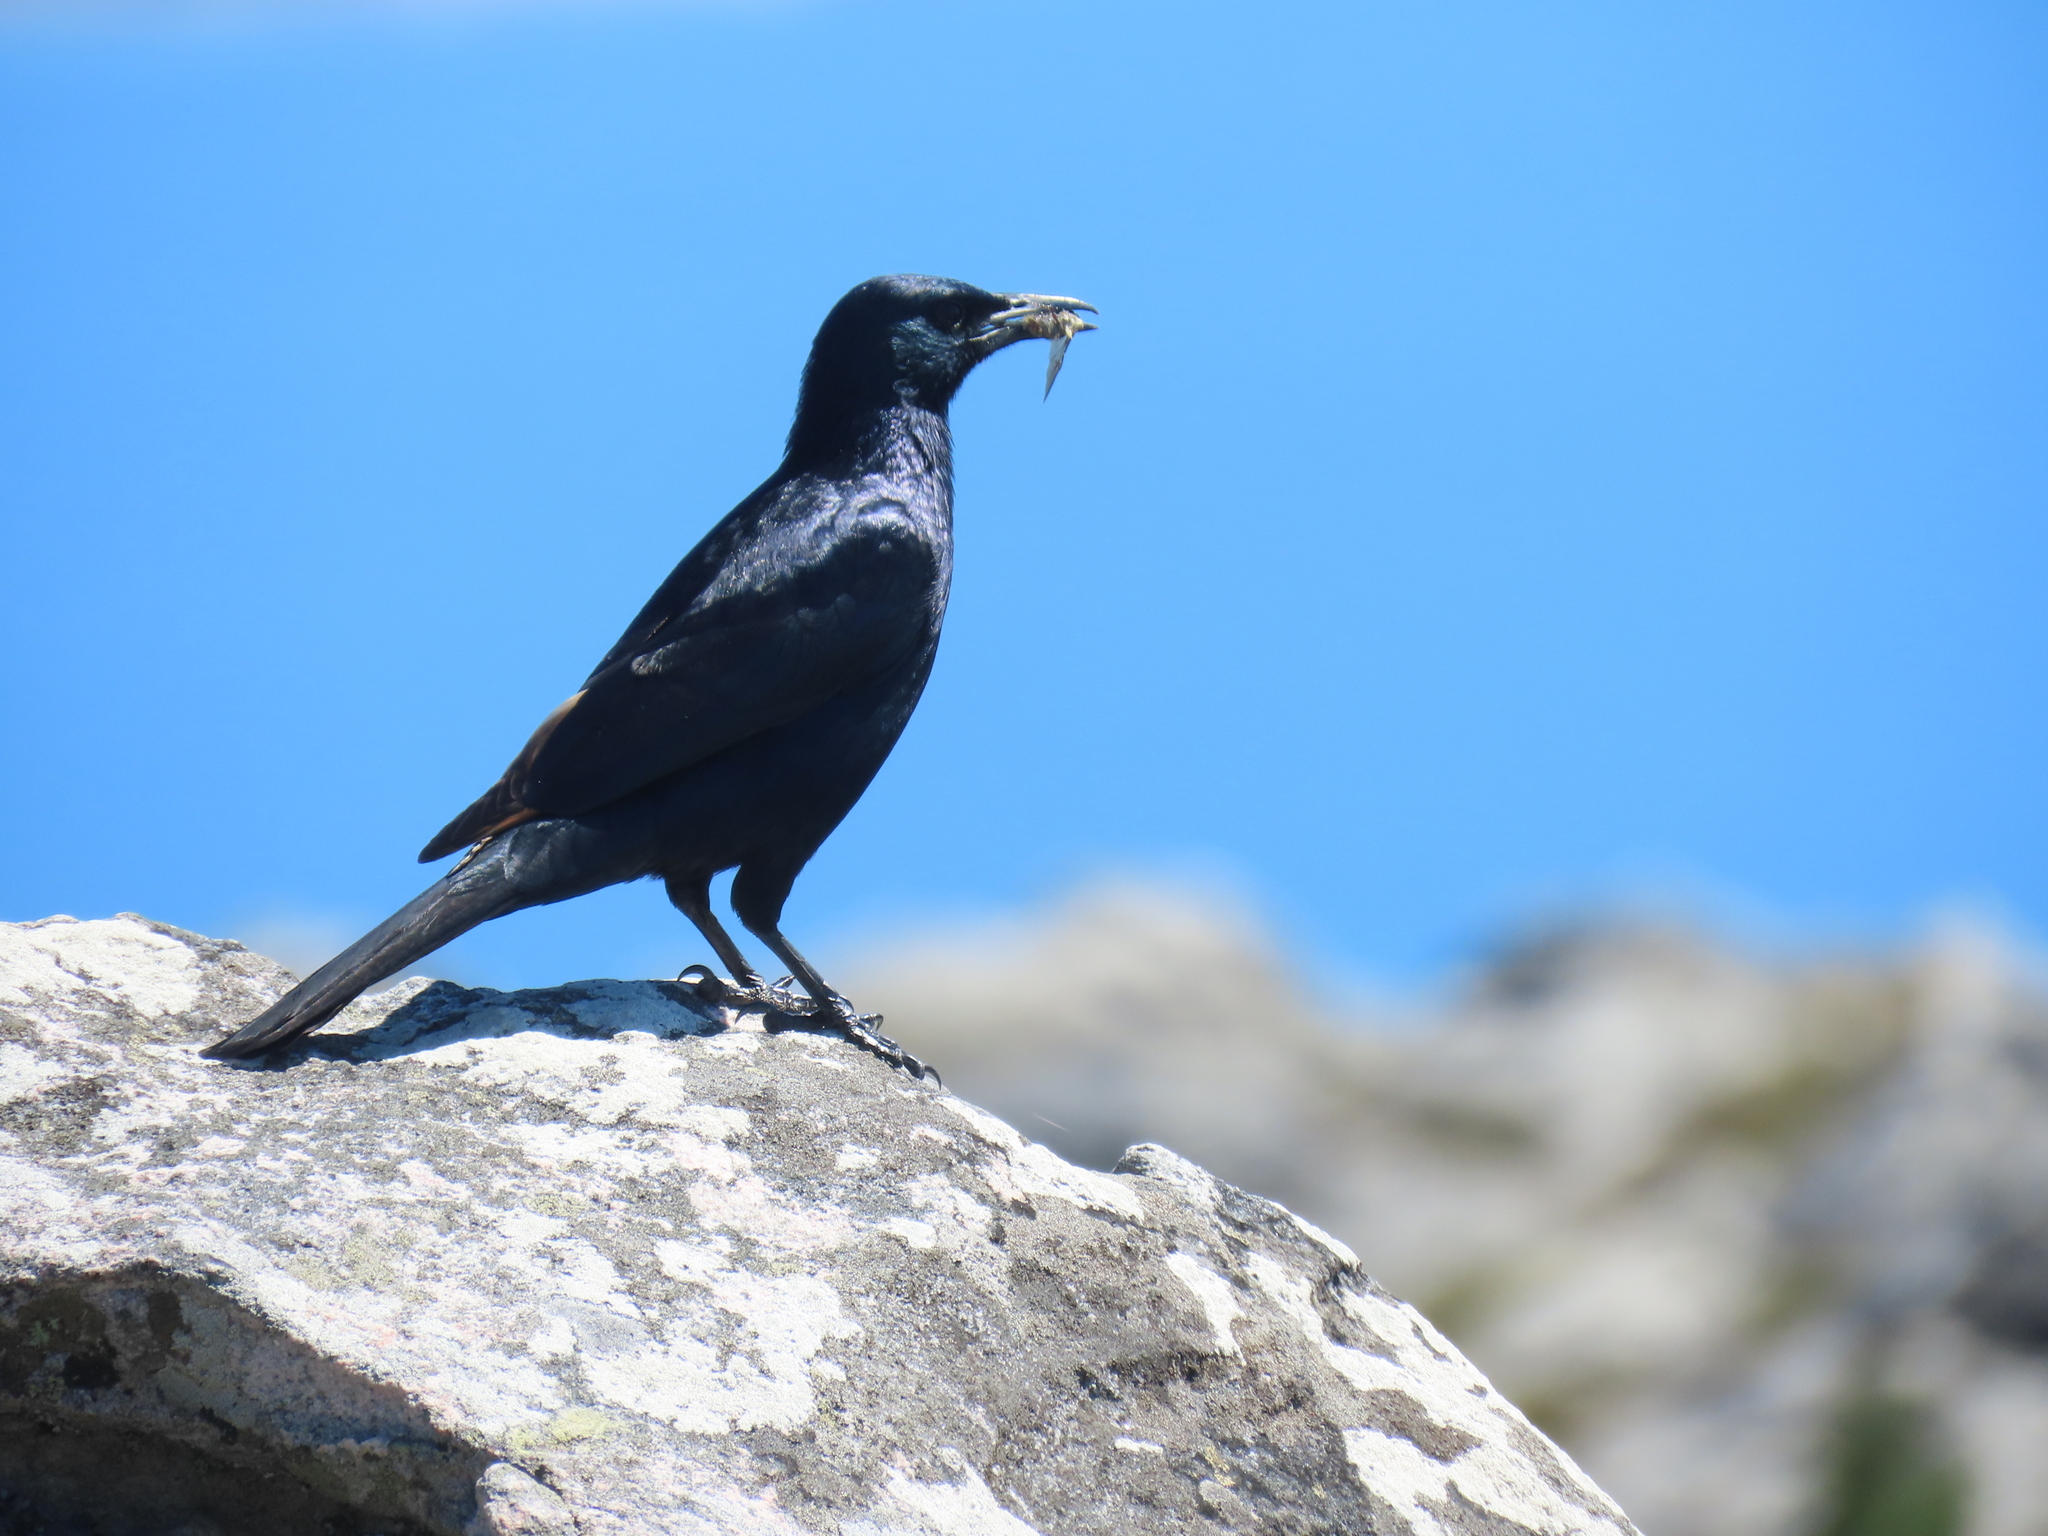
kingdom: Animalia
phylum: Chordata
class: Aves
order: Passeriformes
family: Sturnidae
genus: Onychognathus
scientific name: Onychognathus morio
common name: Red-winged starling
